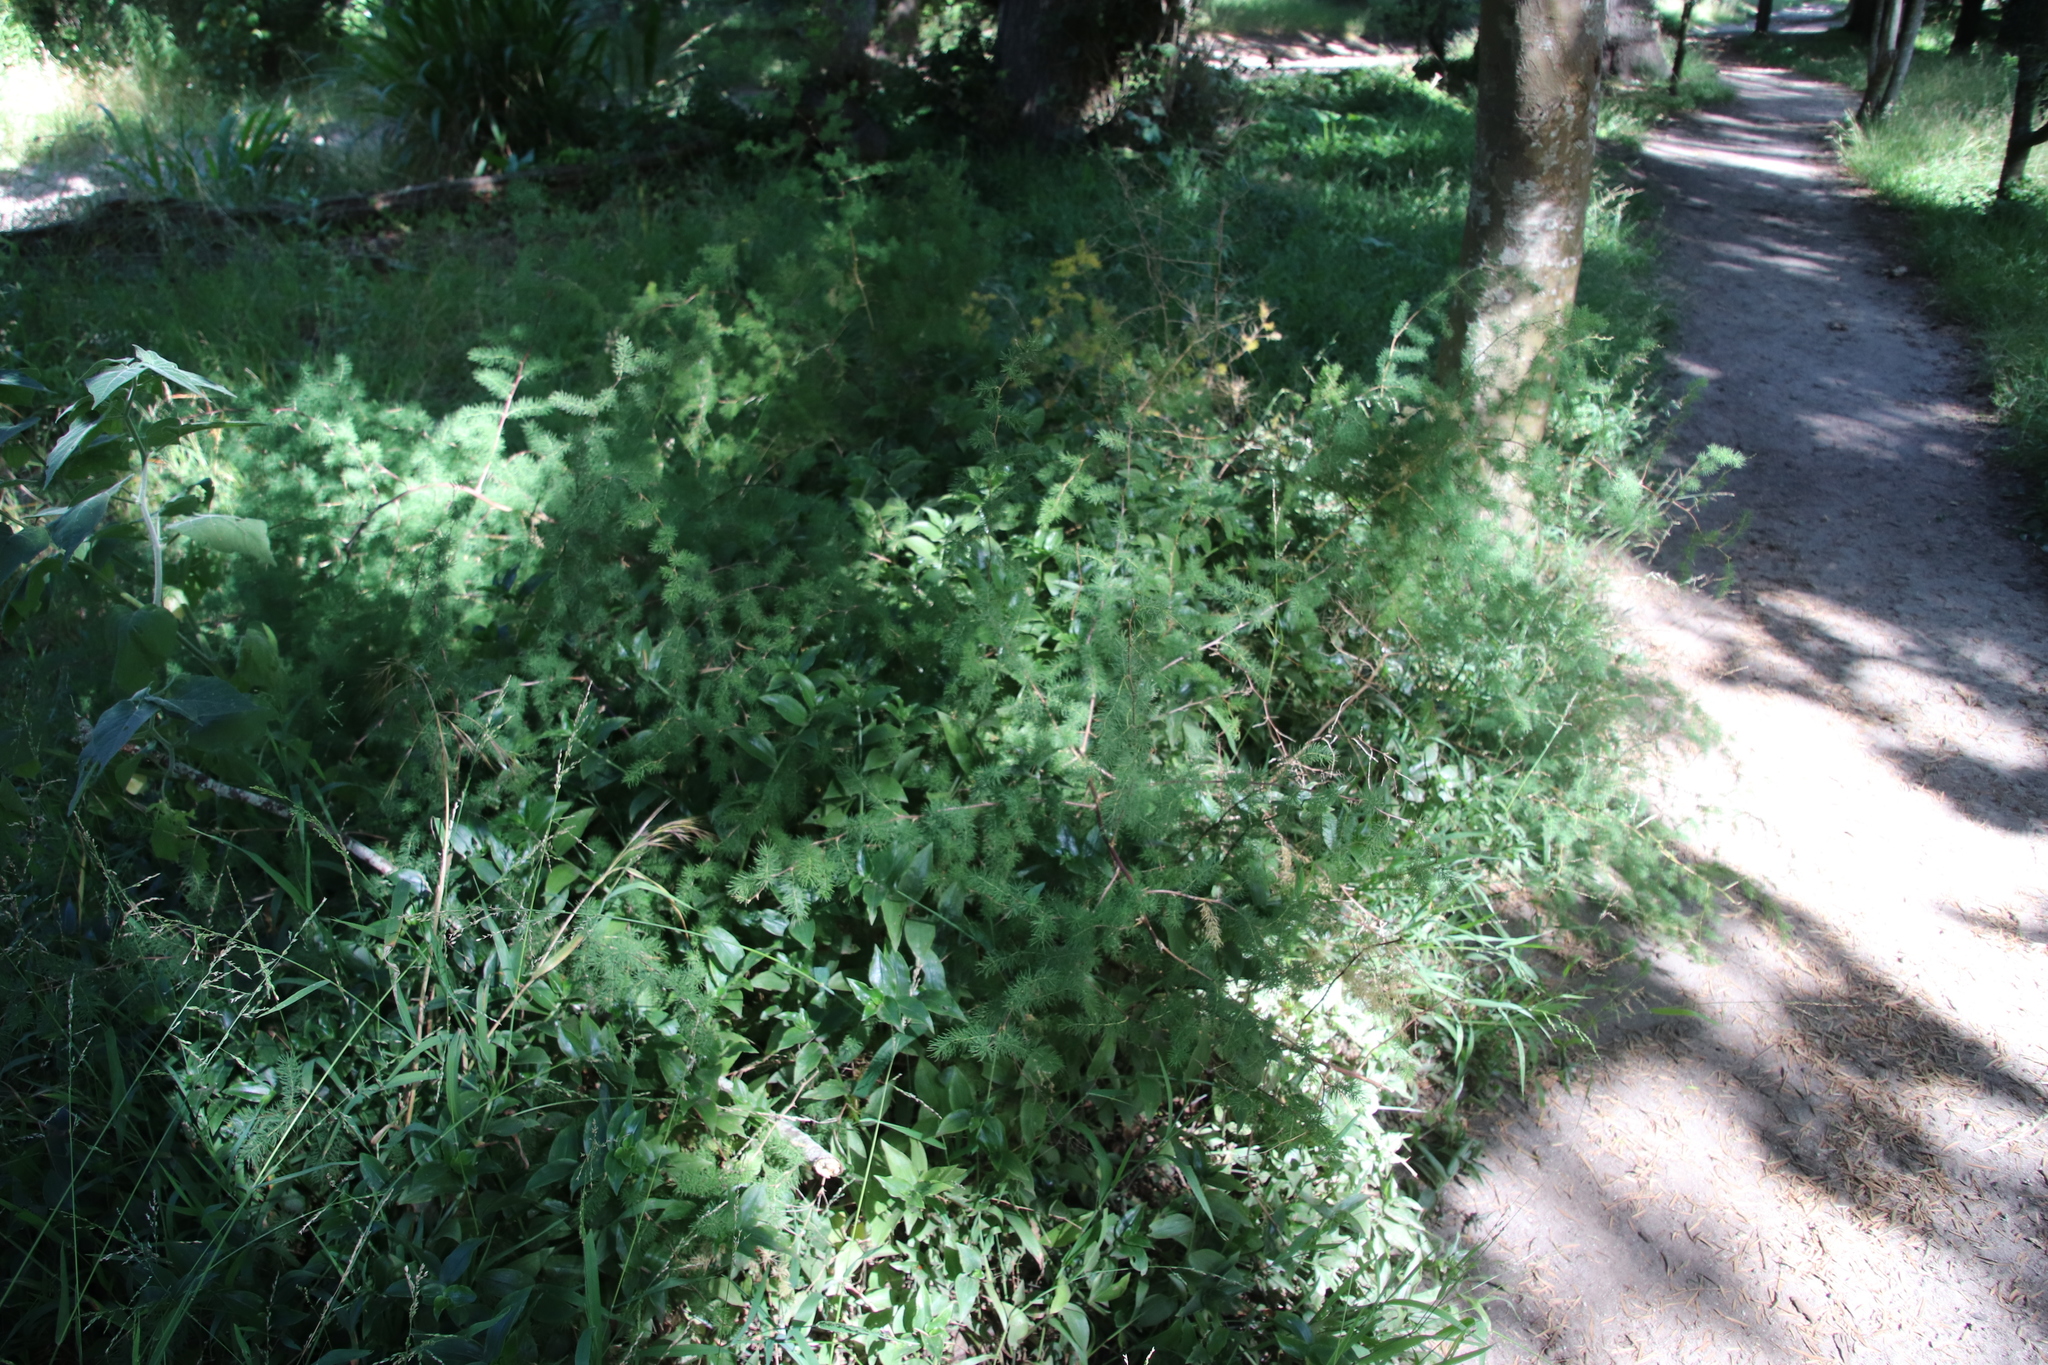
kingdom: Plantae
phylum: Tracheophyta
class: Liliopsida
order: Asparagales
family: Asparagaceae
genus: Asparagus
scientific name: Asparagus rubicundus
